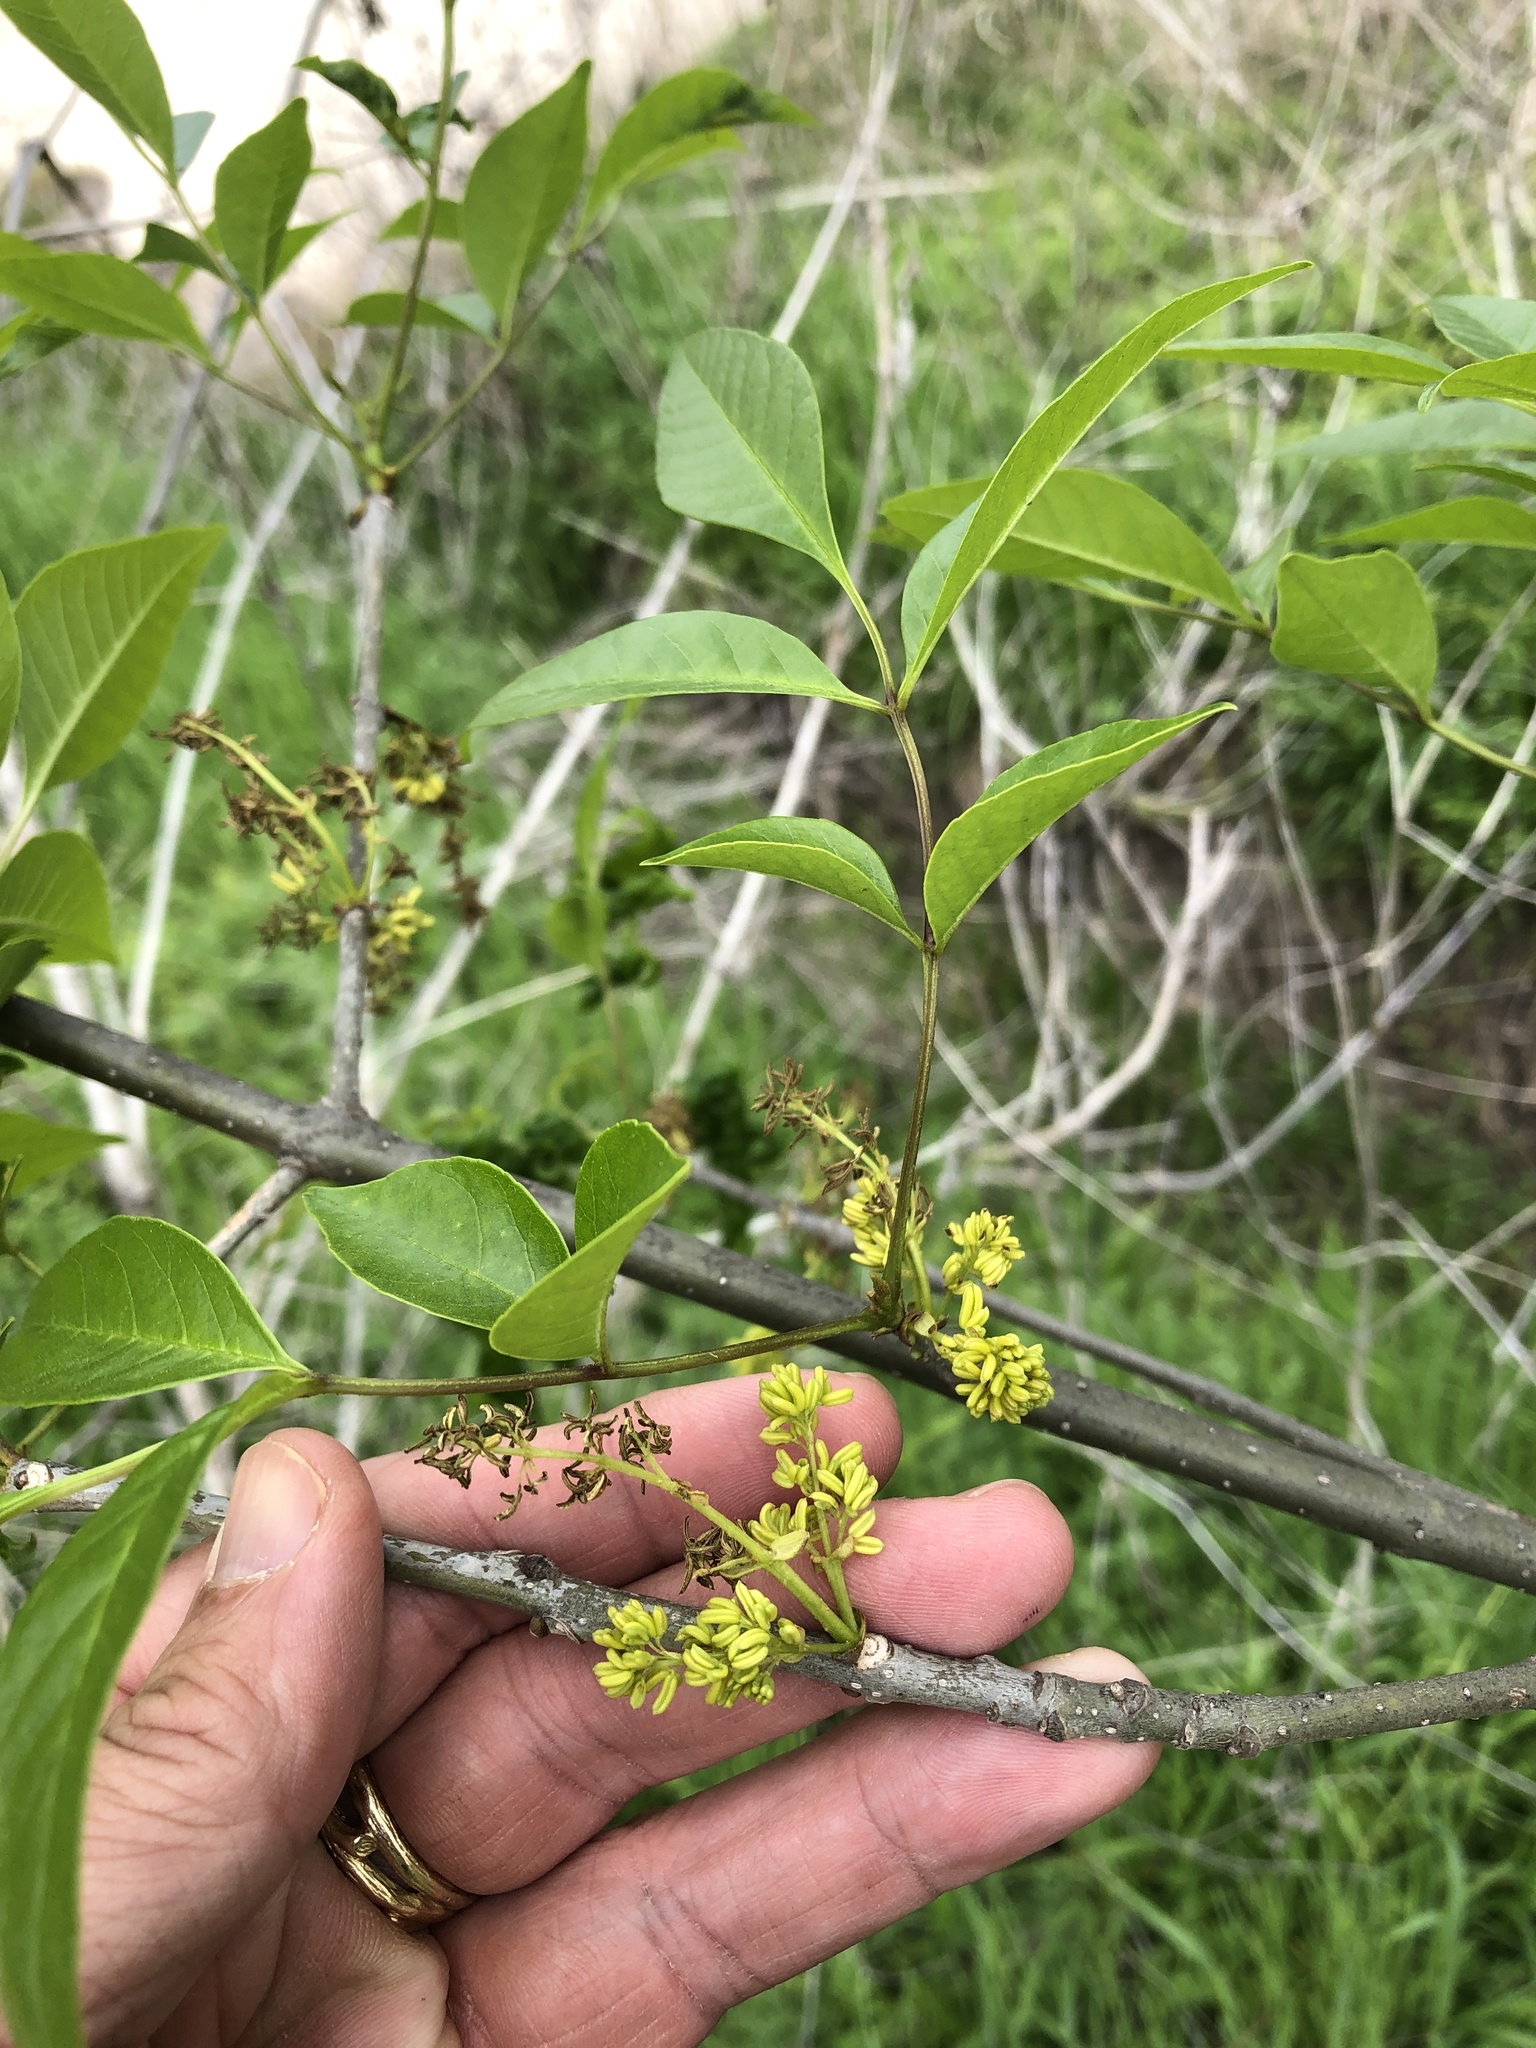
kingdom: Plantae
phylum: Tracheophyta
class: Magnoliopsida
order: Lamiales
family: Oleaceae
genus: Fraxinus
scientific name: Fraxinus pennsylvanica
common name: Green ash
